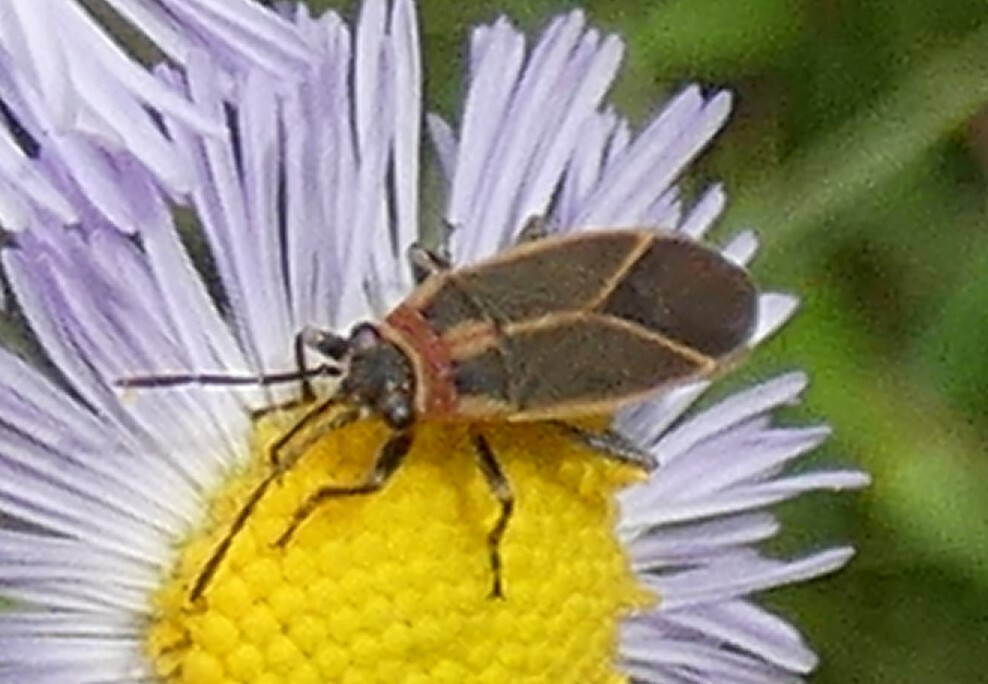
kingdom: Animalia
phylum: Arthropoda
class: Insecta
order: Hemiptera
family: Lygaeidae
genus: Ochrimnus
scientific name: Ochrimnus mimulus
